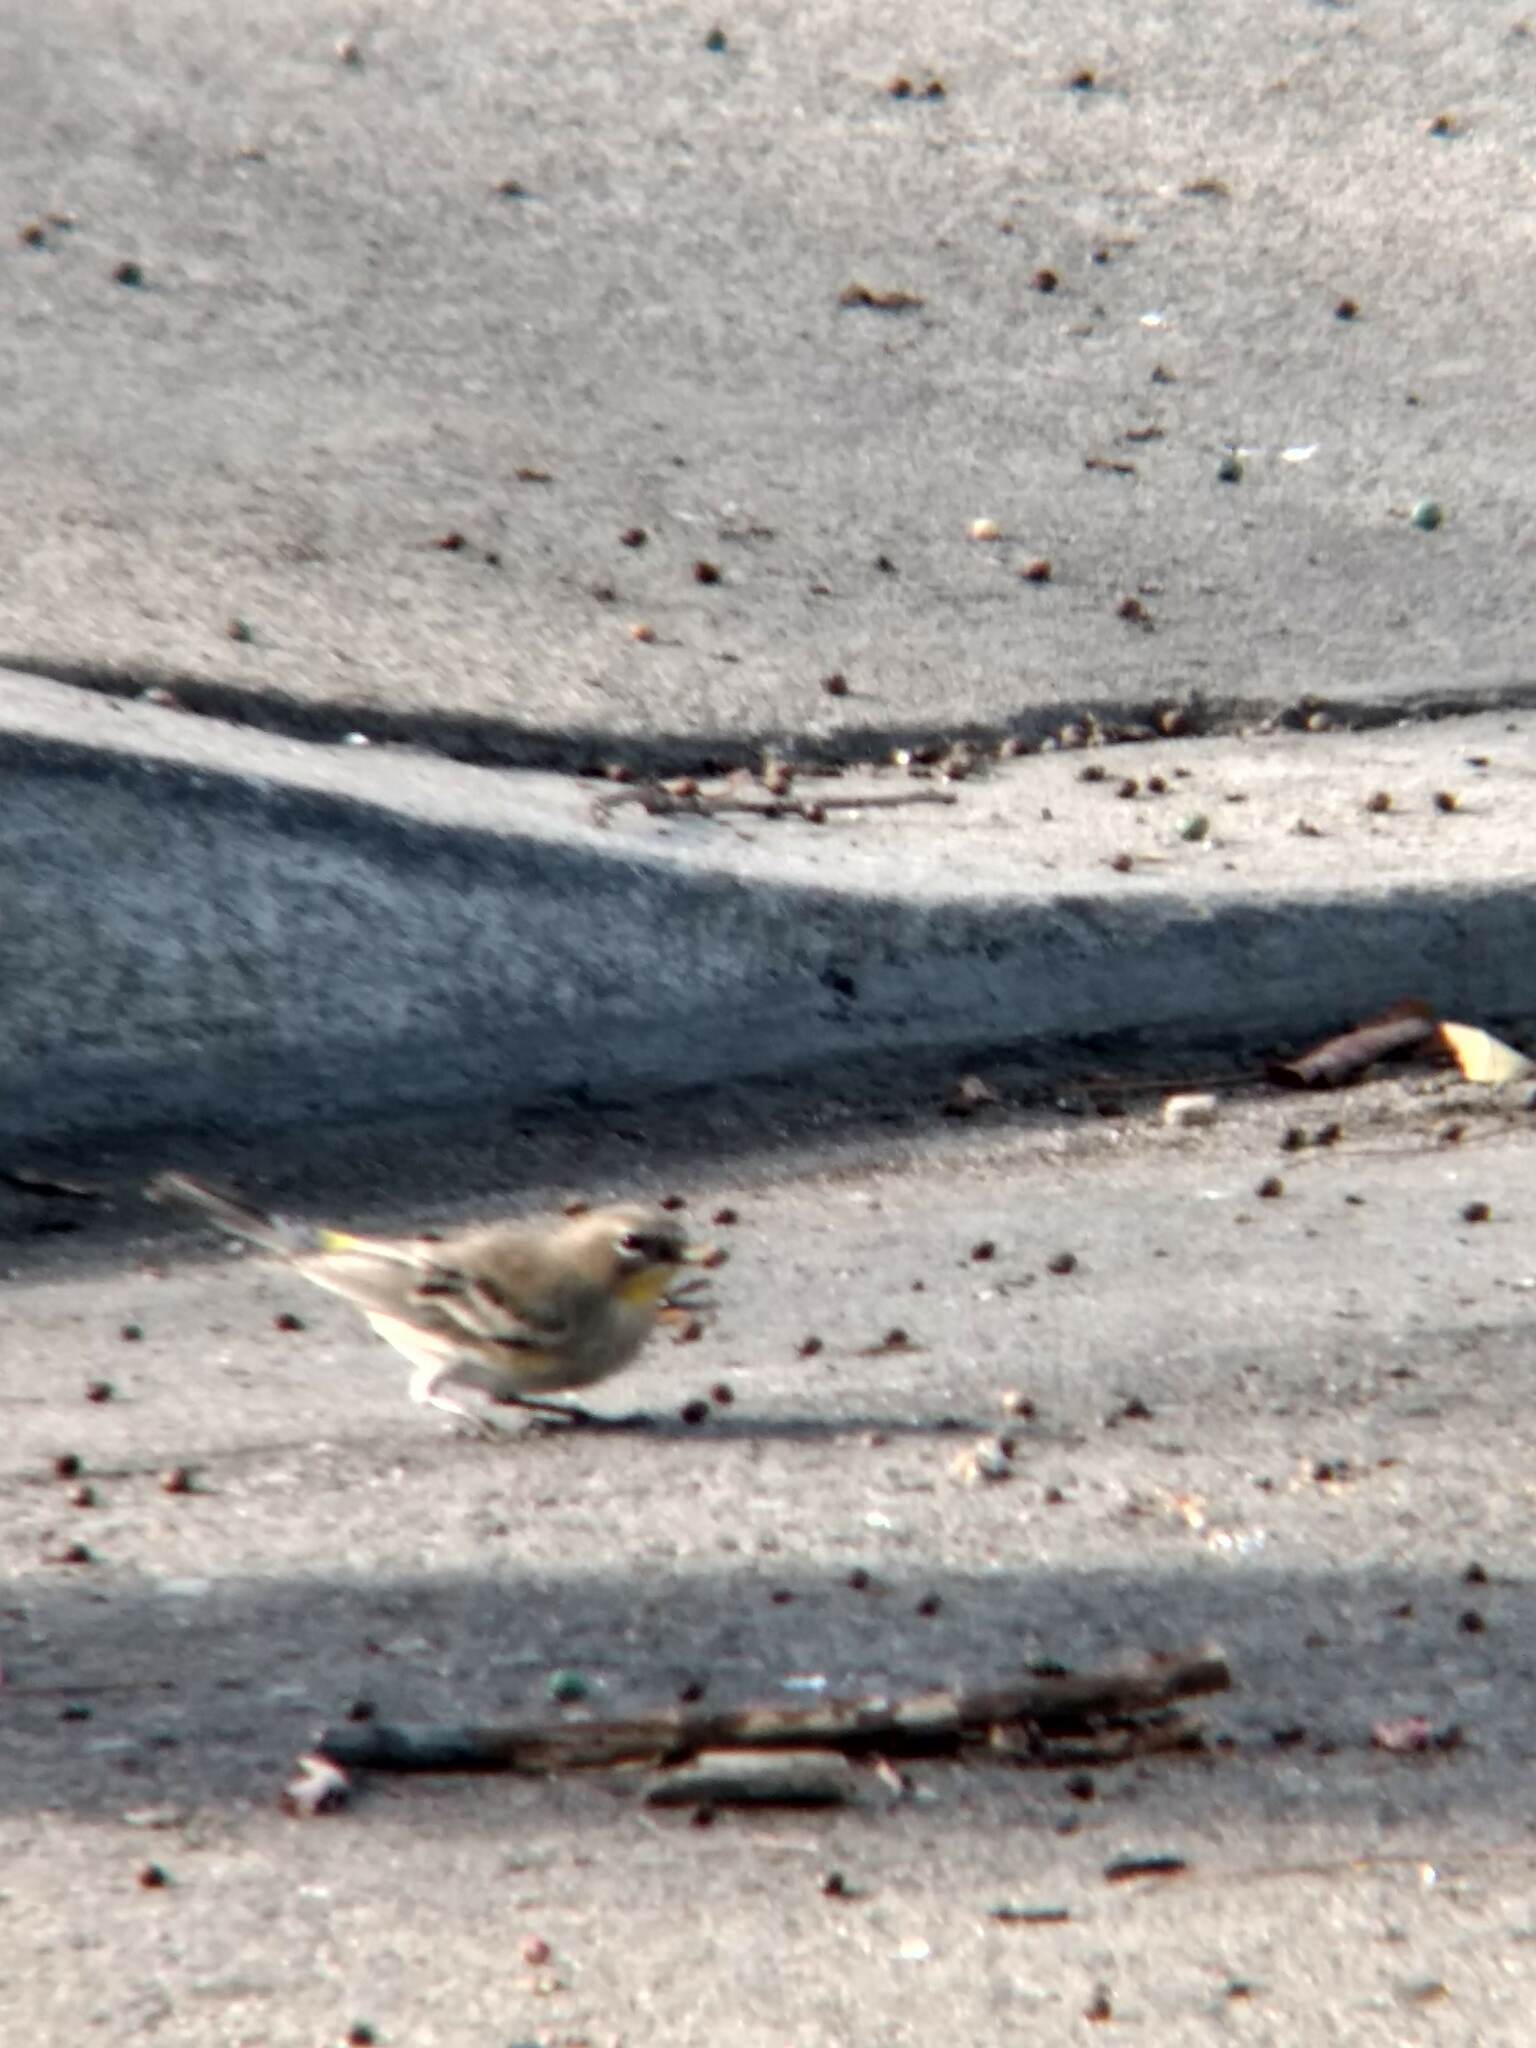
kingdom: Animalia
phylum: Chordata
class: Aves
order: Passeriformes
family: Parulidae
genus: Setophaga
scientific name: Setophaga coronata
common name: Myrtle warbler
